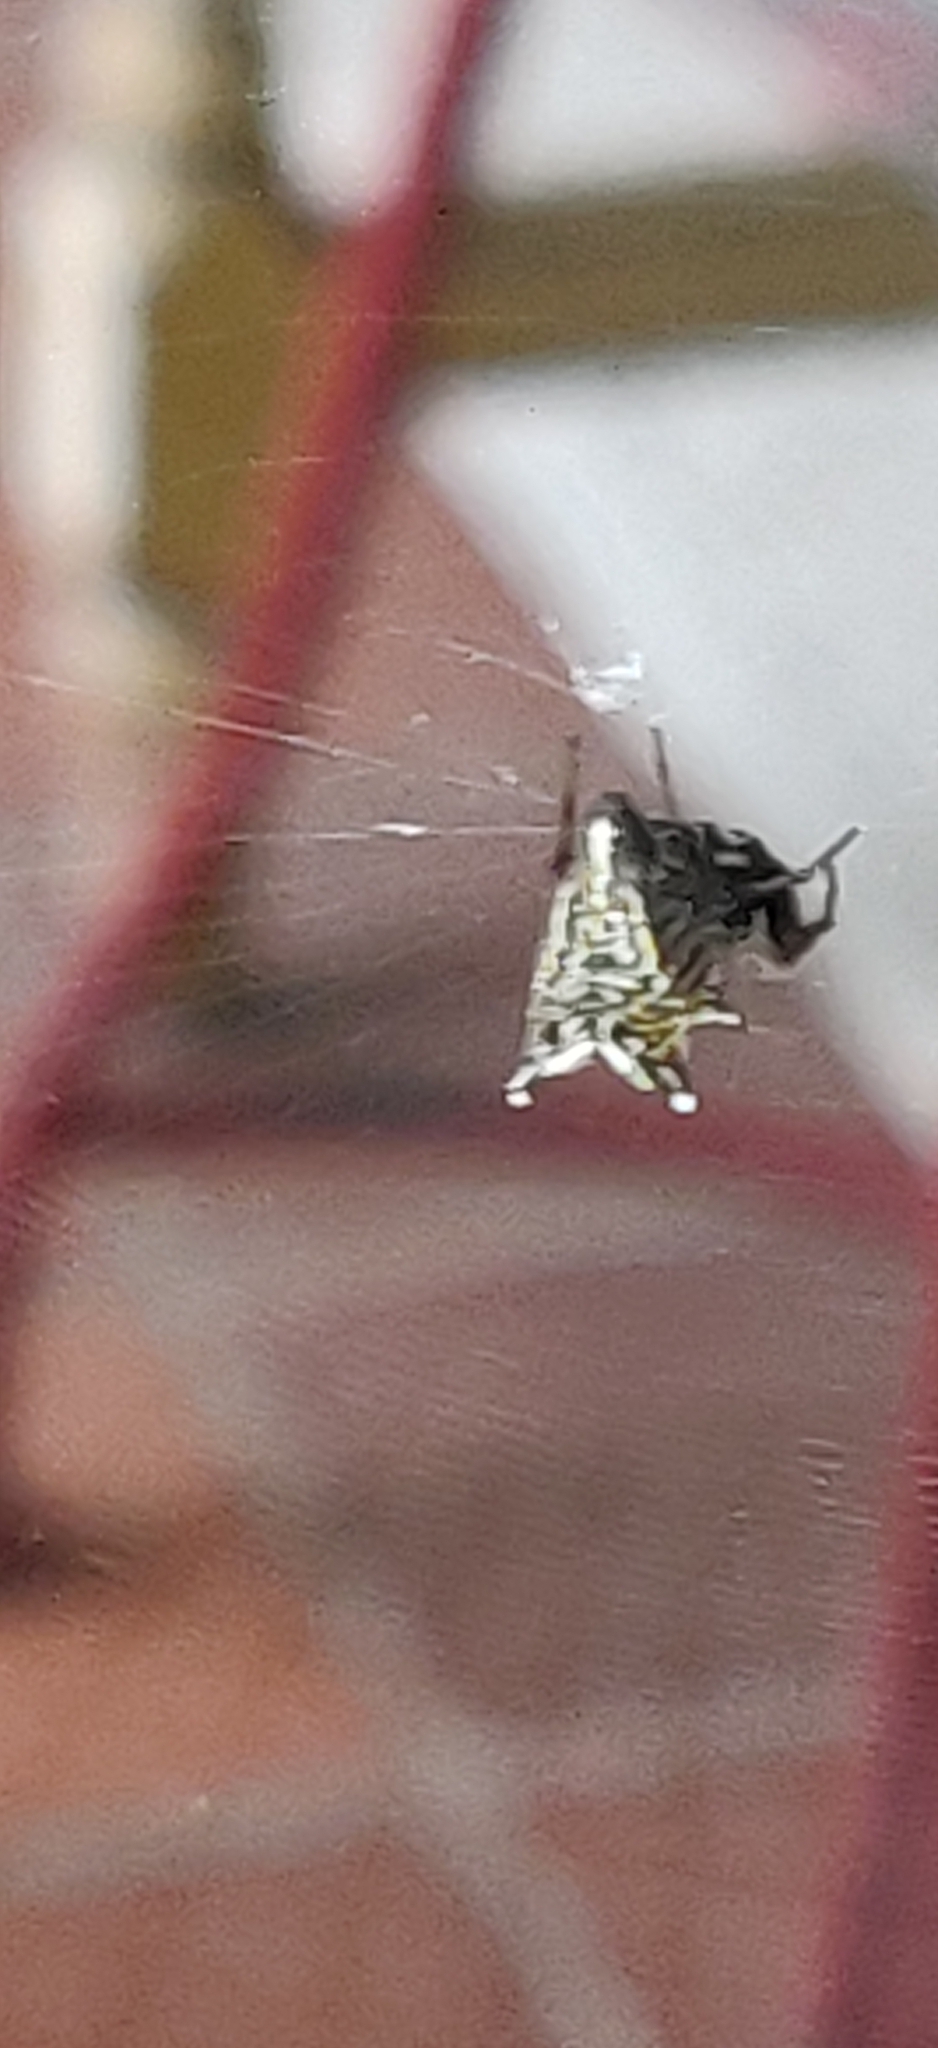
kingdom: Animalia
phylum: Arthropoda
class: Arachnida
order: Araneae
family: Araneidae
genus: Micrathena
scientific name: Micrathena gracilis
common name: Orb weavers
